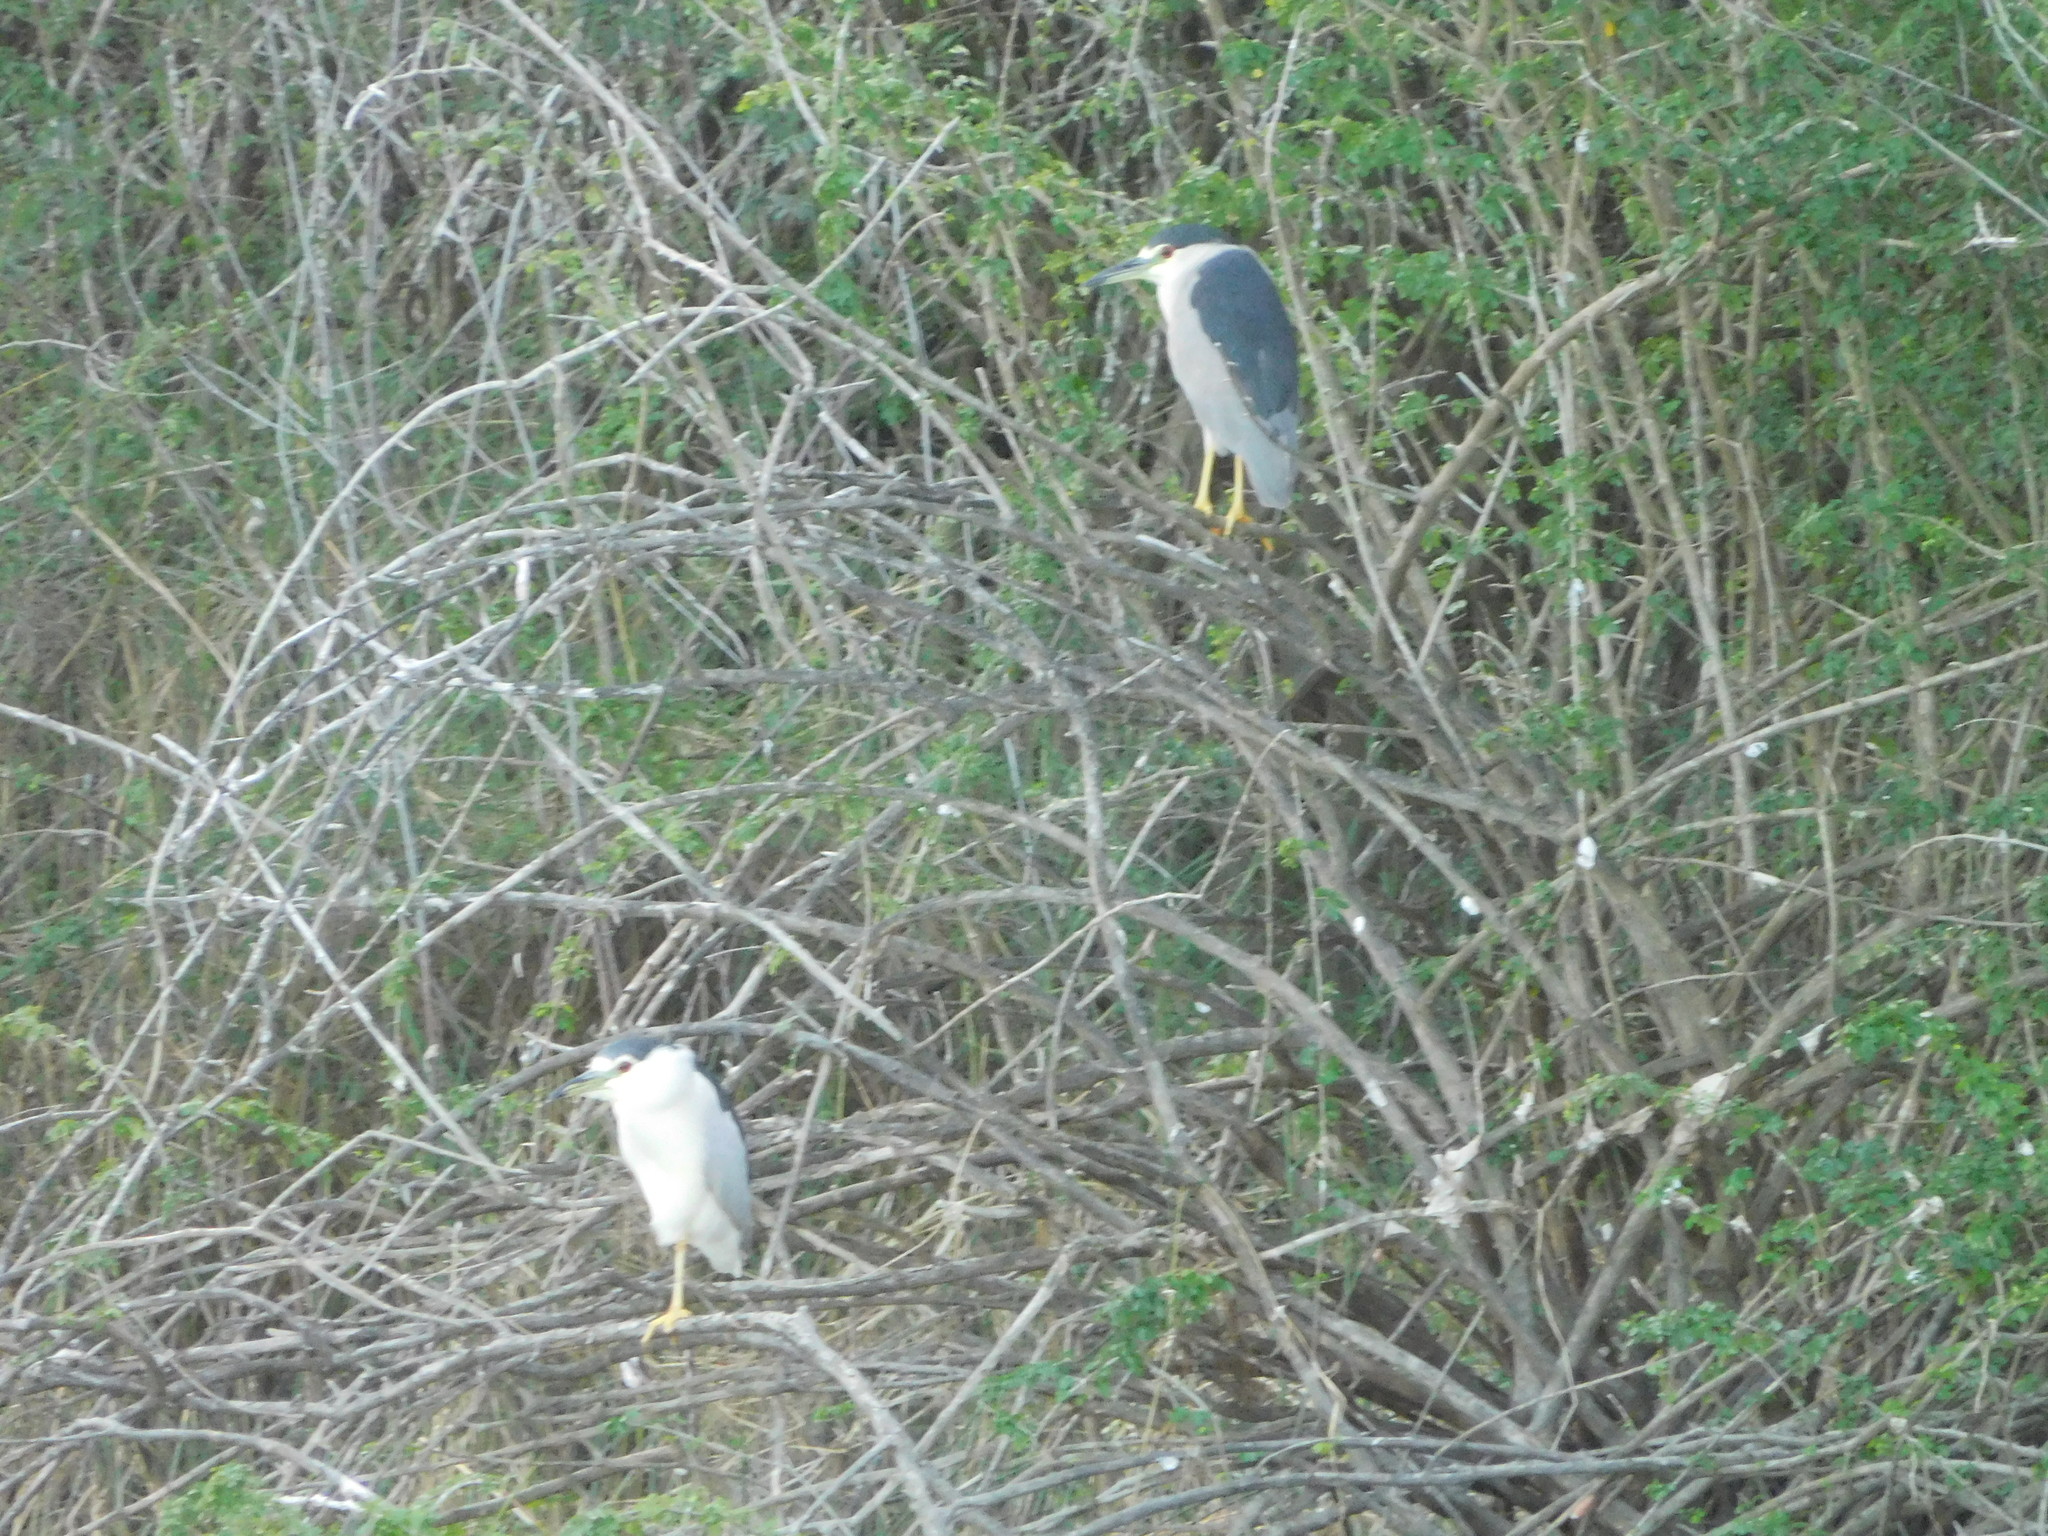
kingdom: Animalia
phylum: Chordata
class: Aves
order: Pelecaniformes
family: Ardeidae
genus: Nycticorax
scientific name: Nycticorax nycticorax
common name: Black-crowned night heron
